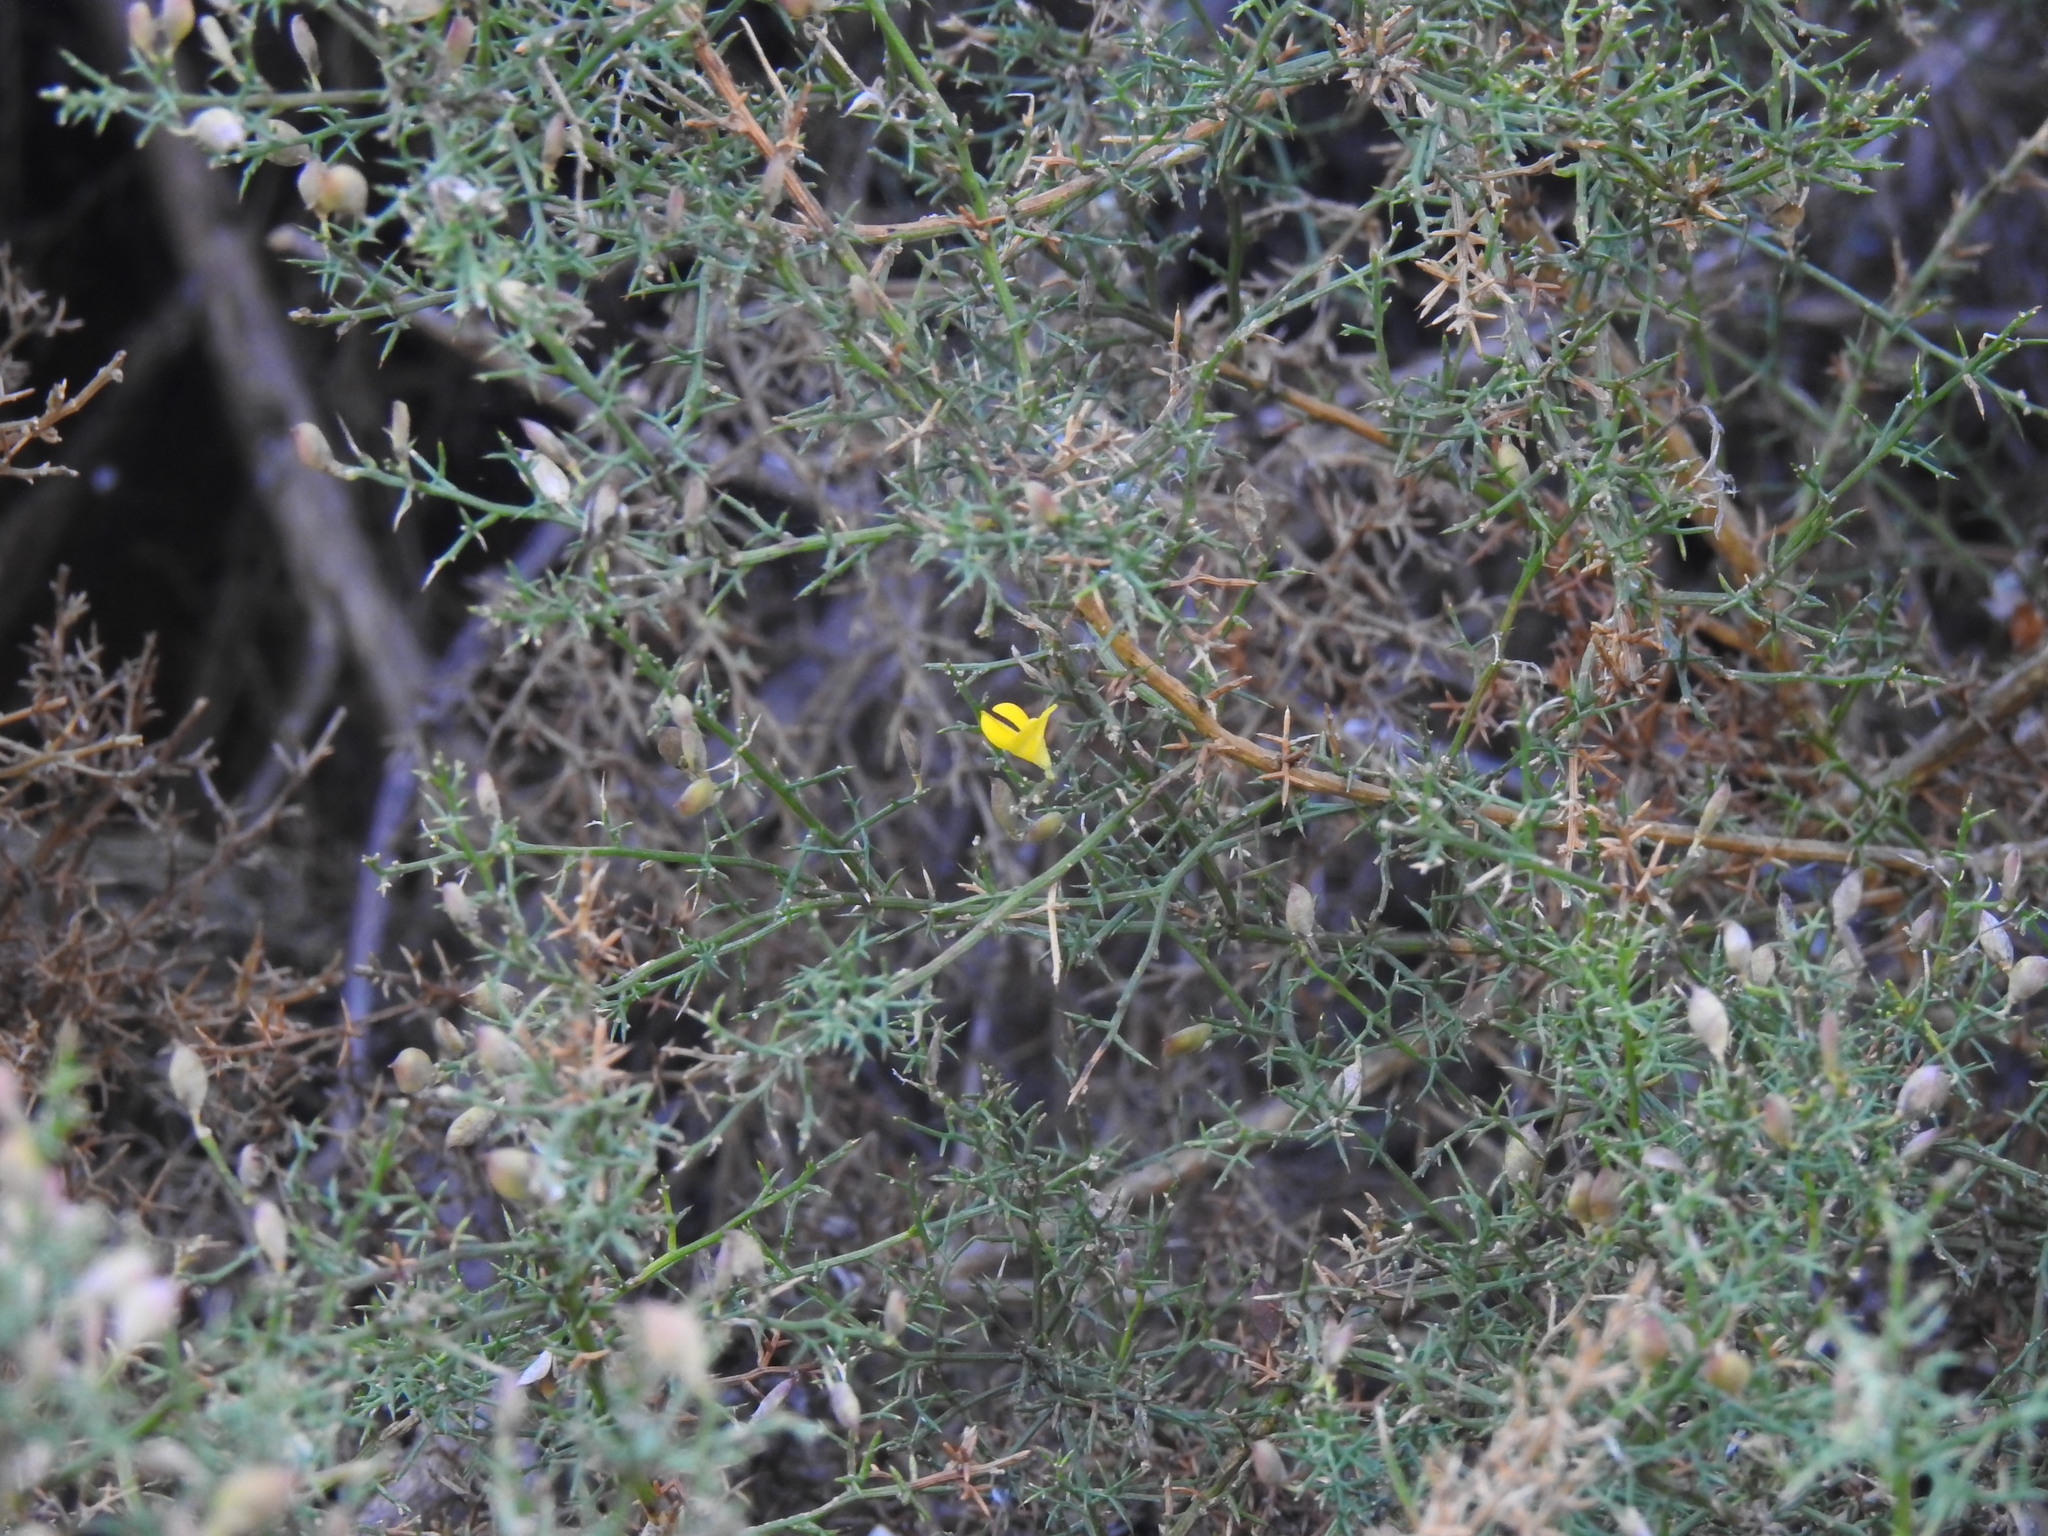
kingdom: Plantae
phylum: Tracheophyta
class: Magnoliopsida
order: Fabales
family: Fabaceae
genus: Stauracanthus
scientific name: Stauracanthus boivinii
